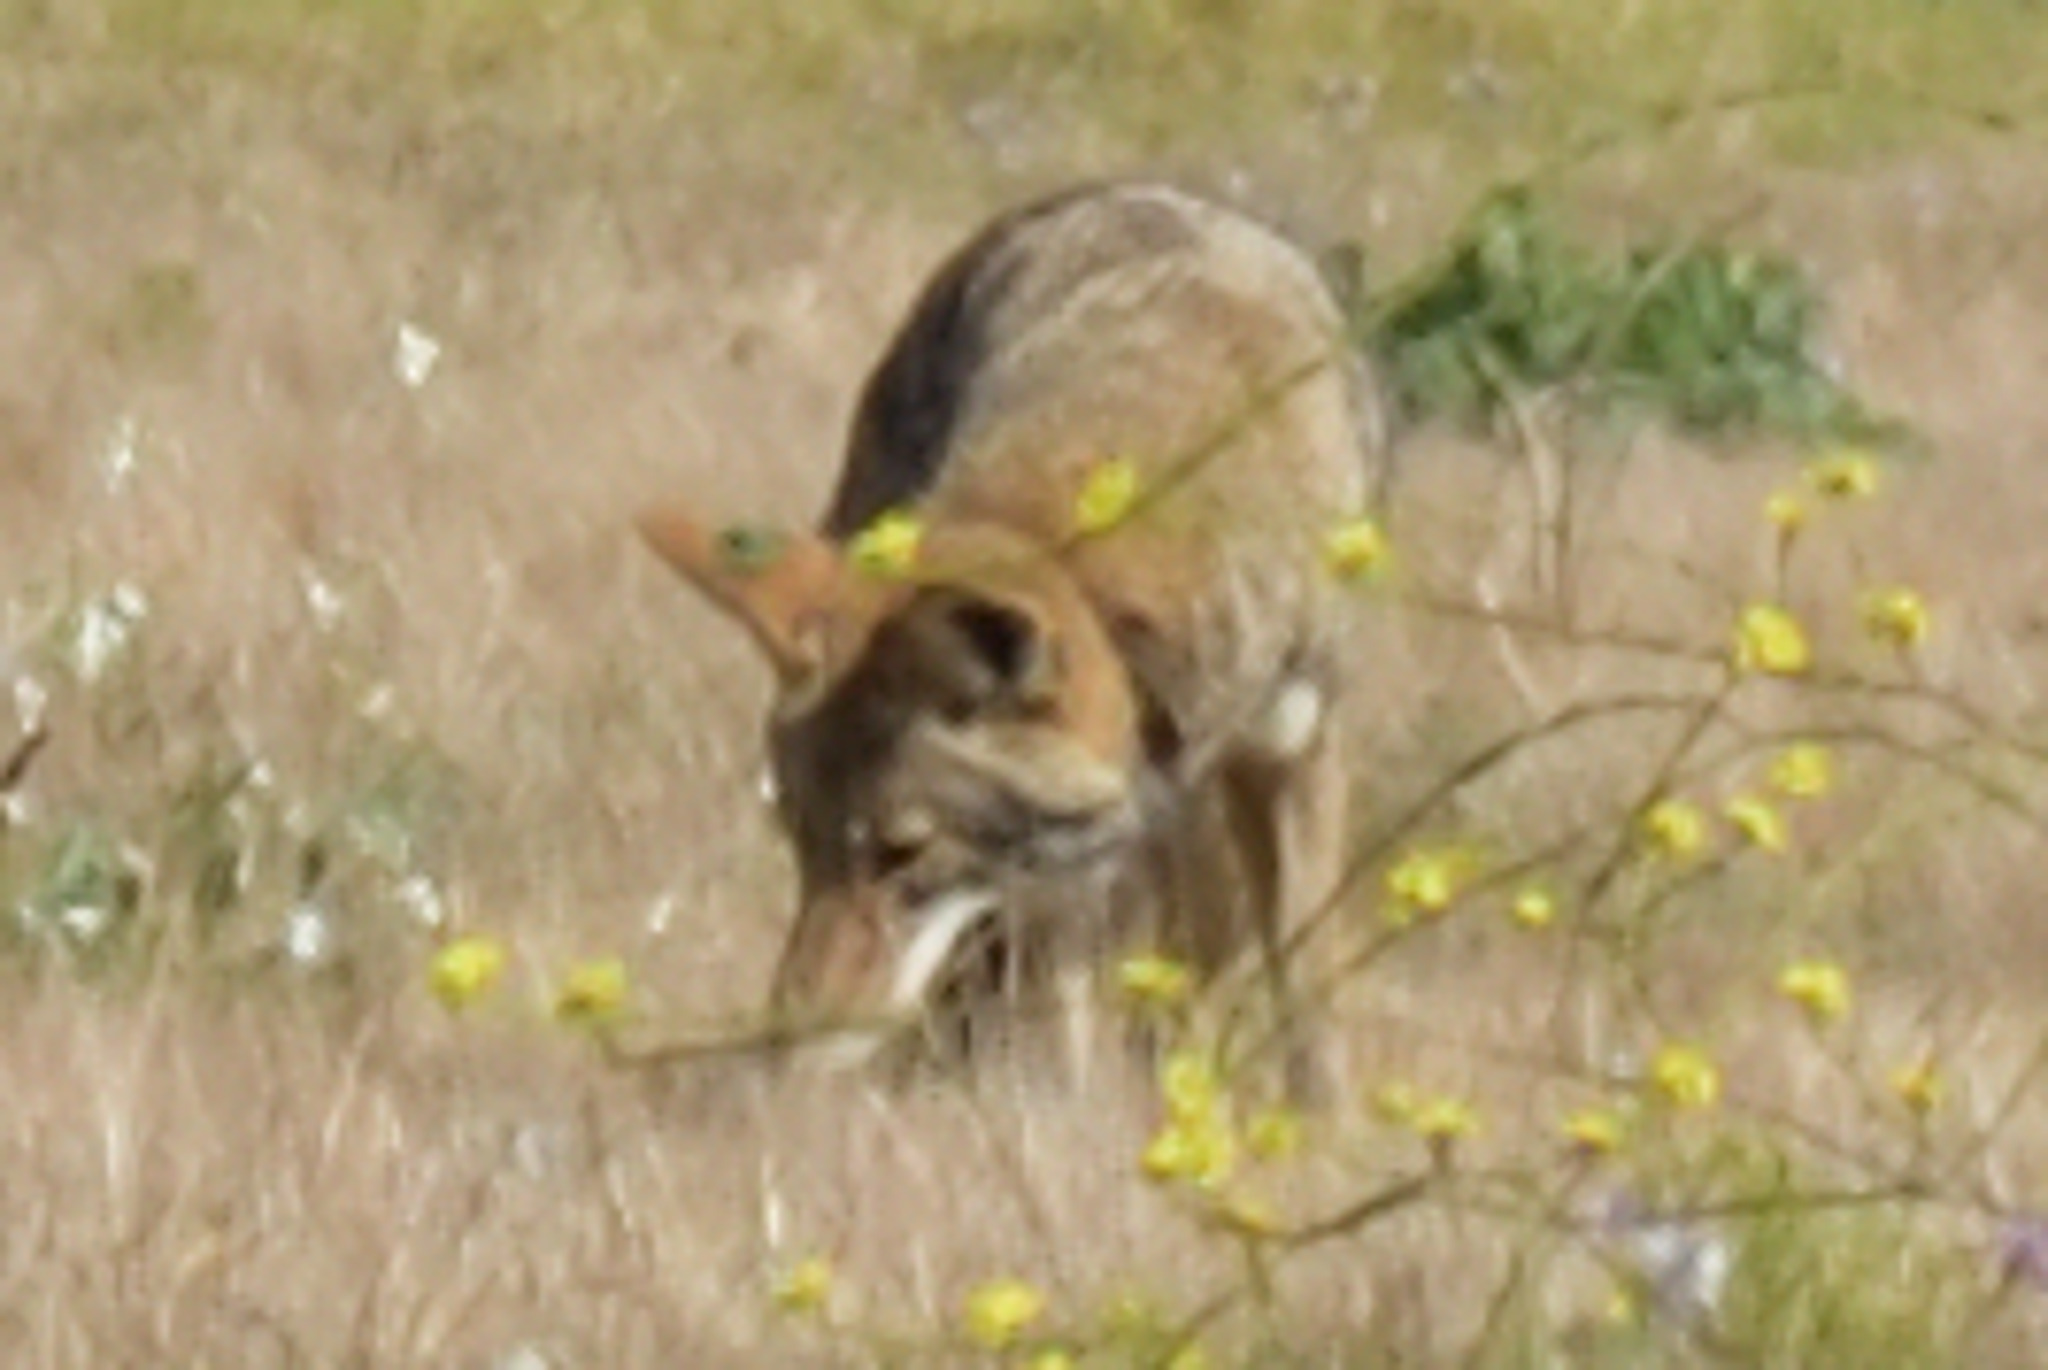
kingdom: Animalia
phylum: Chordata
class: Mammalia
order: Carnivora
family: Canidae
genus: Canis
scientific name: Canis latrans
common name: Coyote
